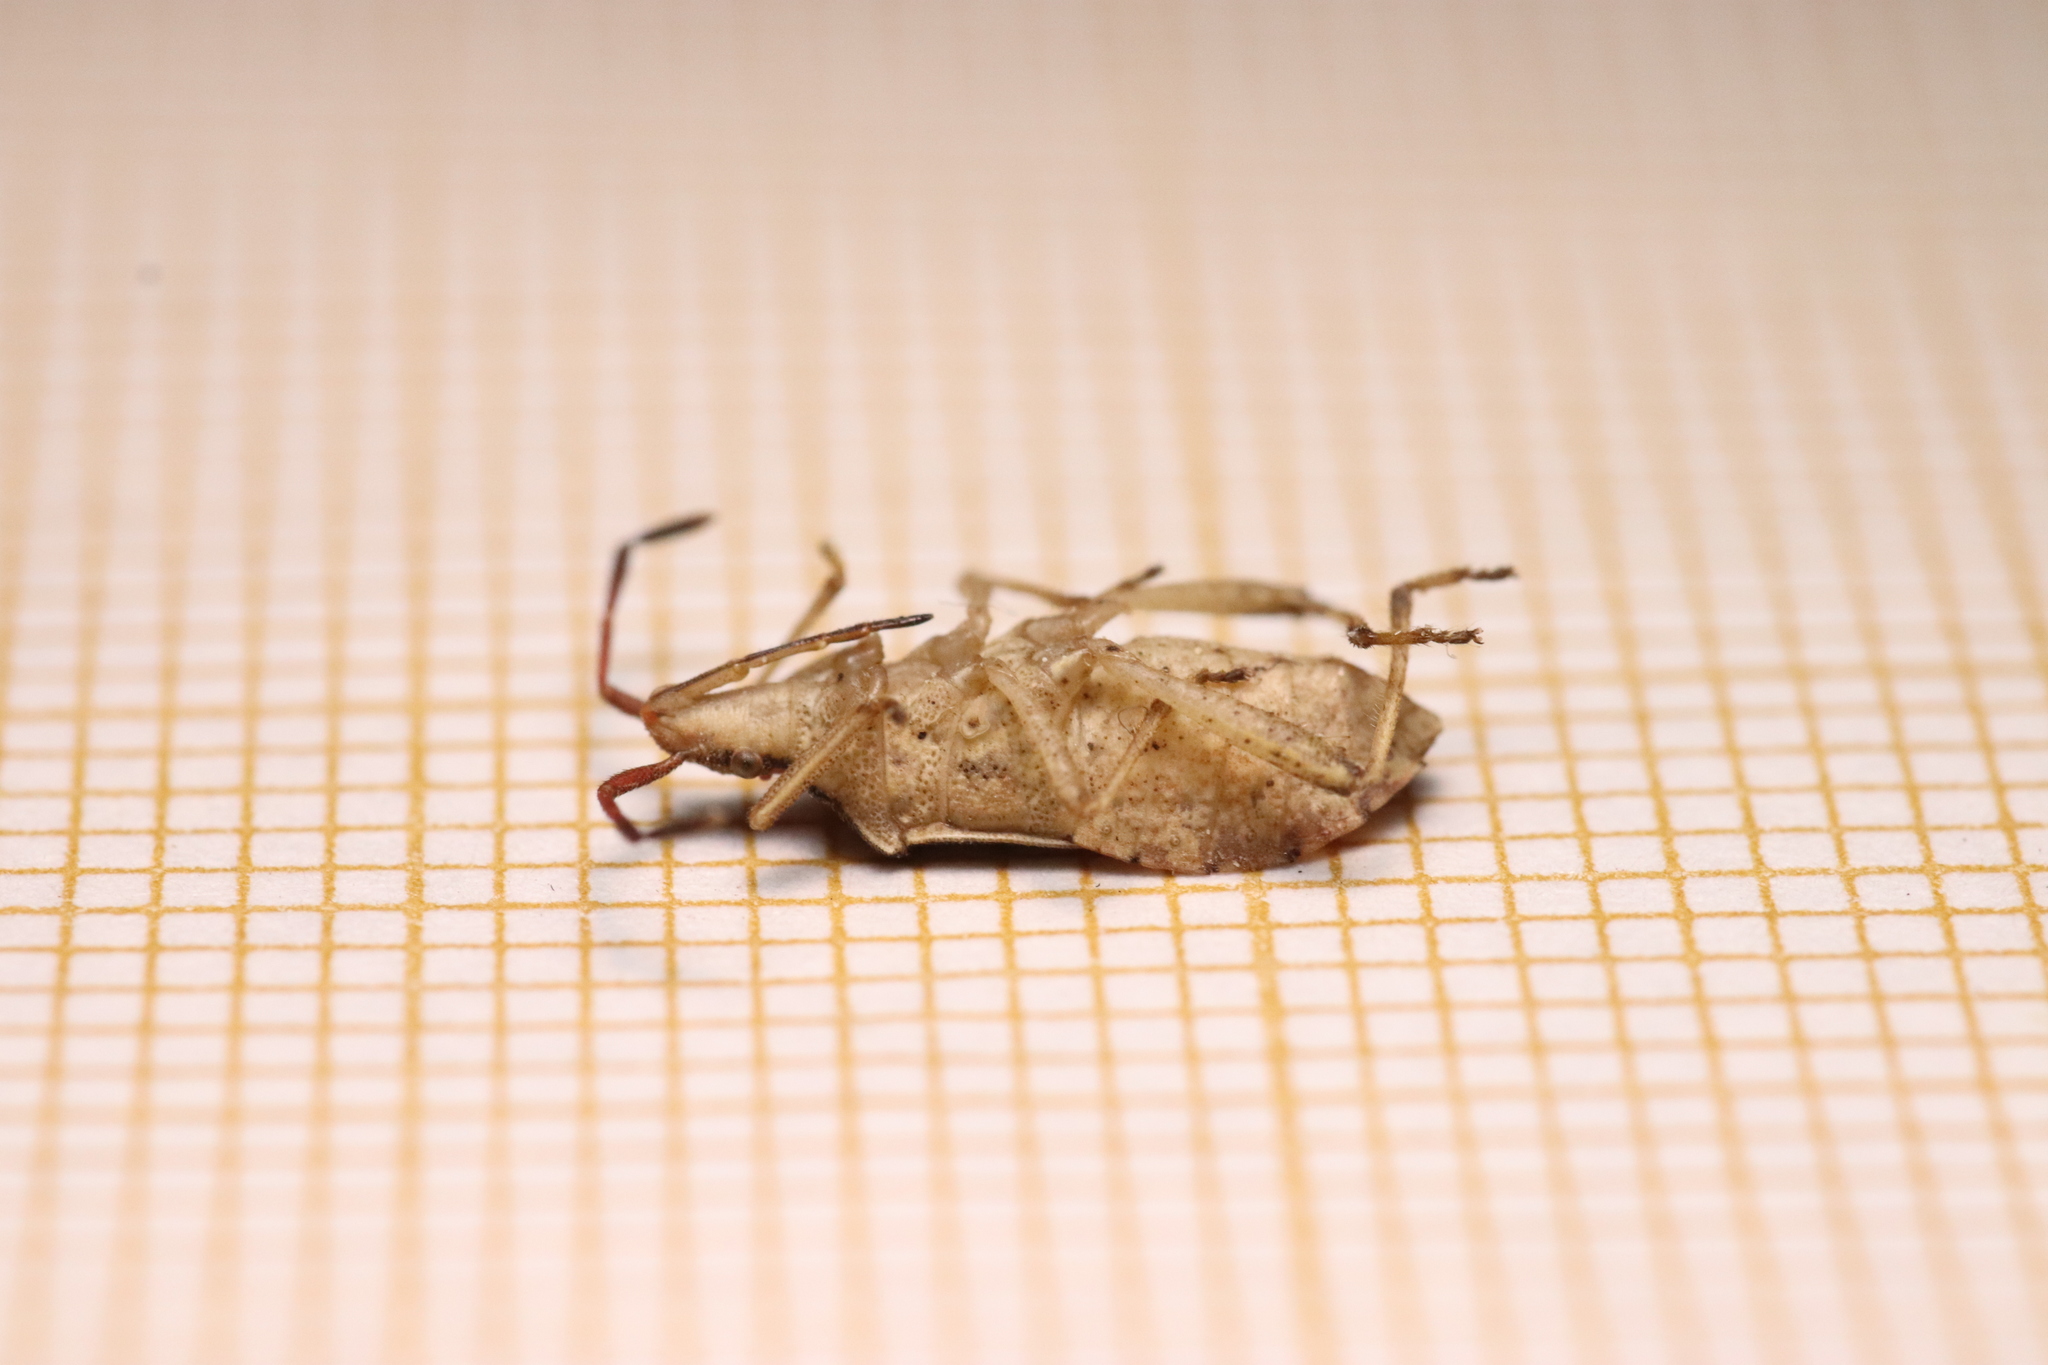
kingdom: Animalia
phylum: Arthropoda
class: Insecta
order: Hemiptera
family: Coreidae
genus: Ceraleptus
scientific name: Ceraleptus lividus
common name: Slender-horned leatherbug
